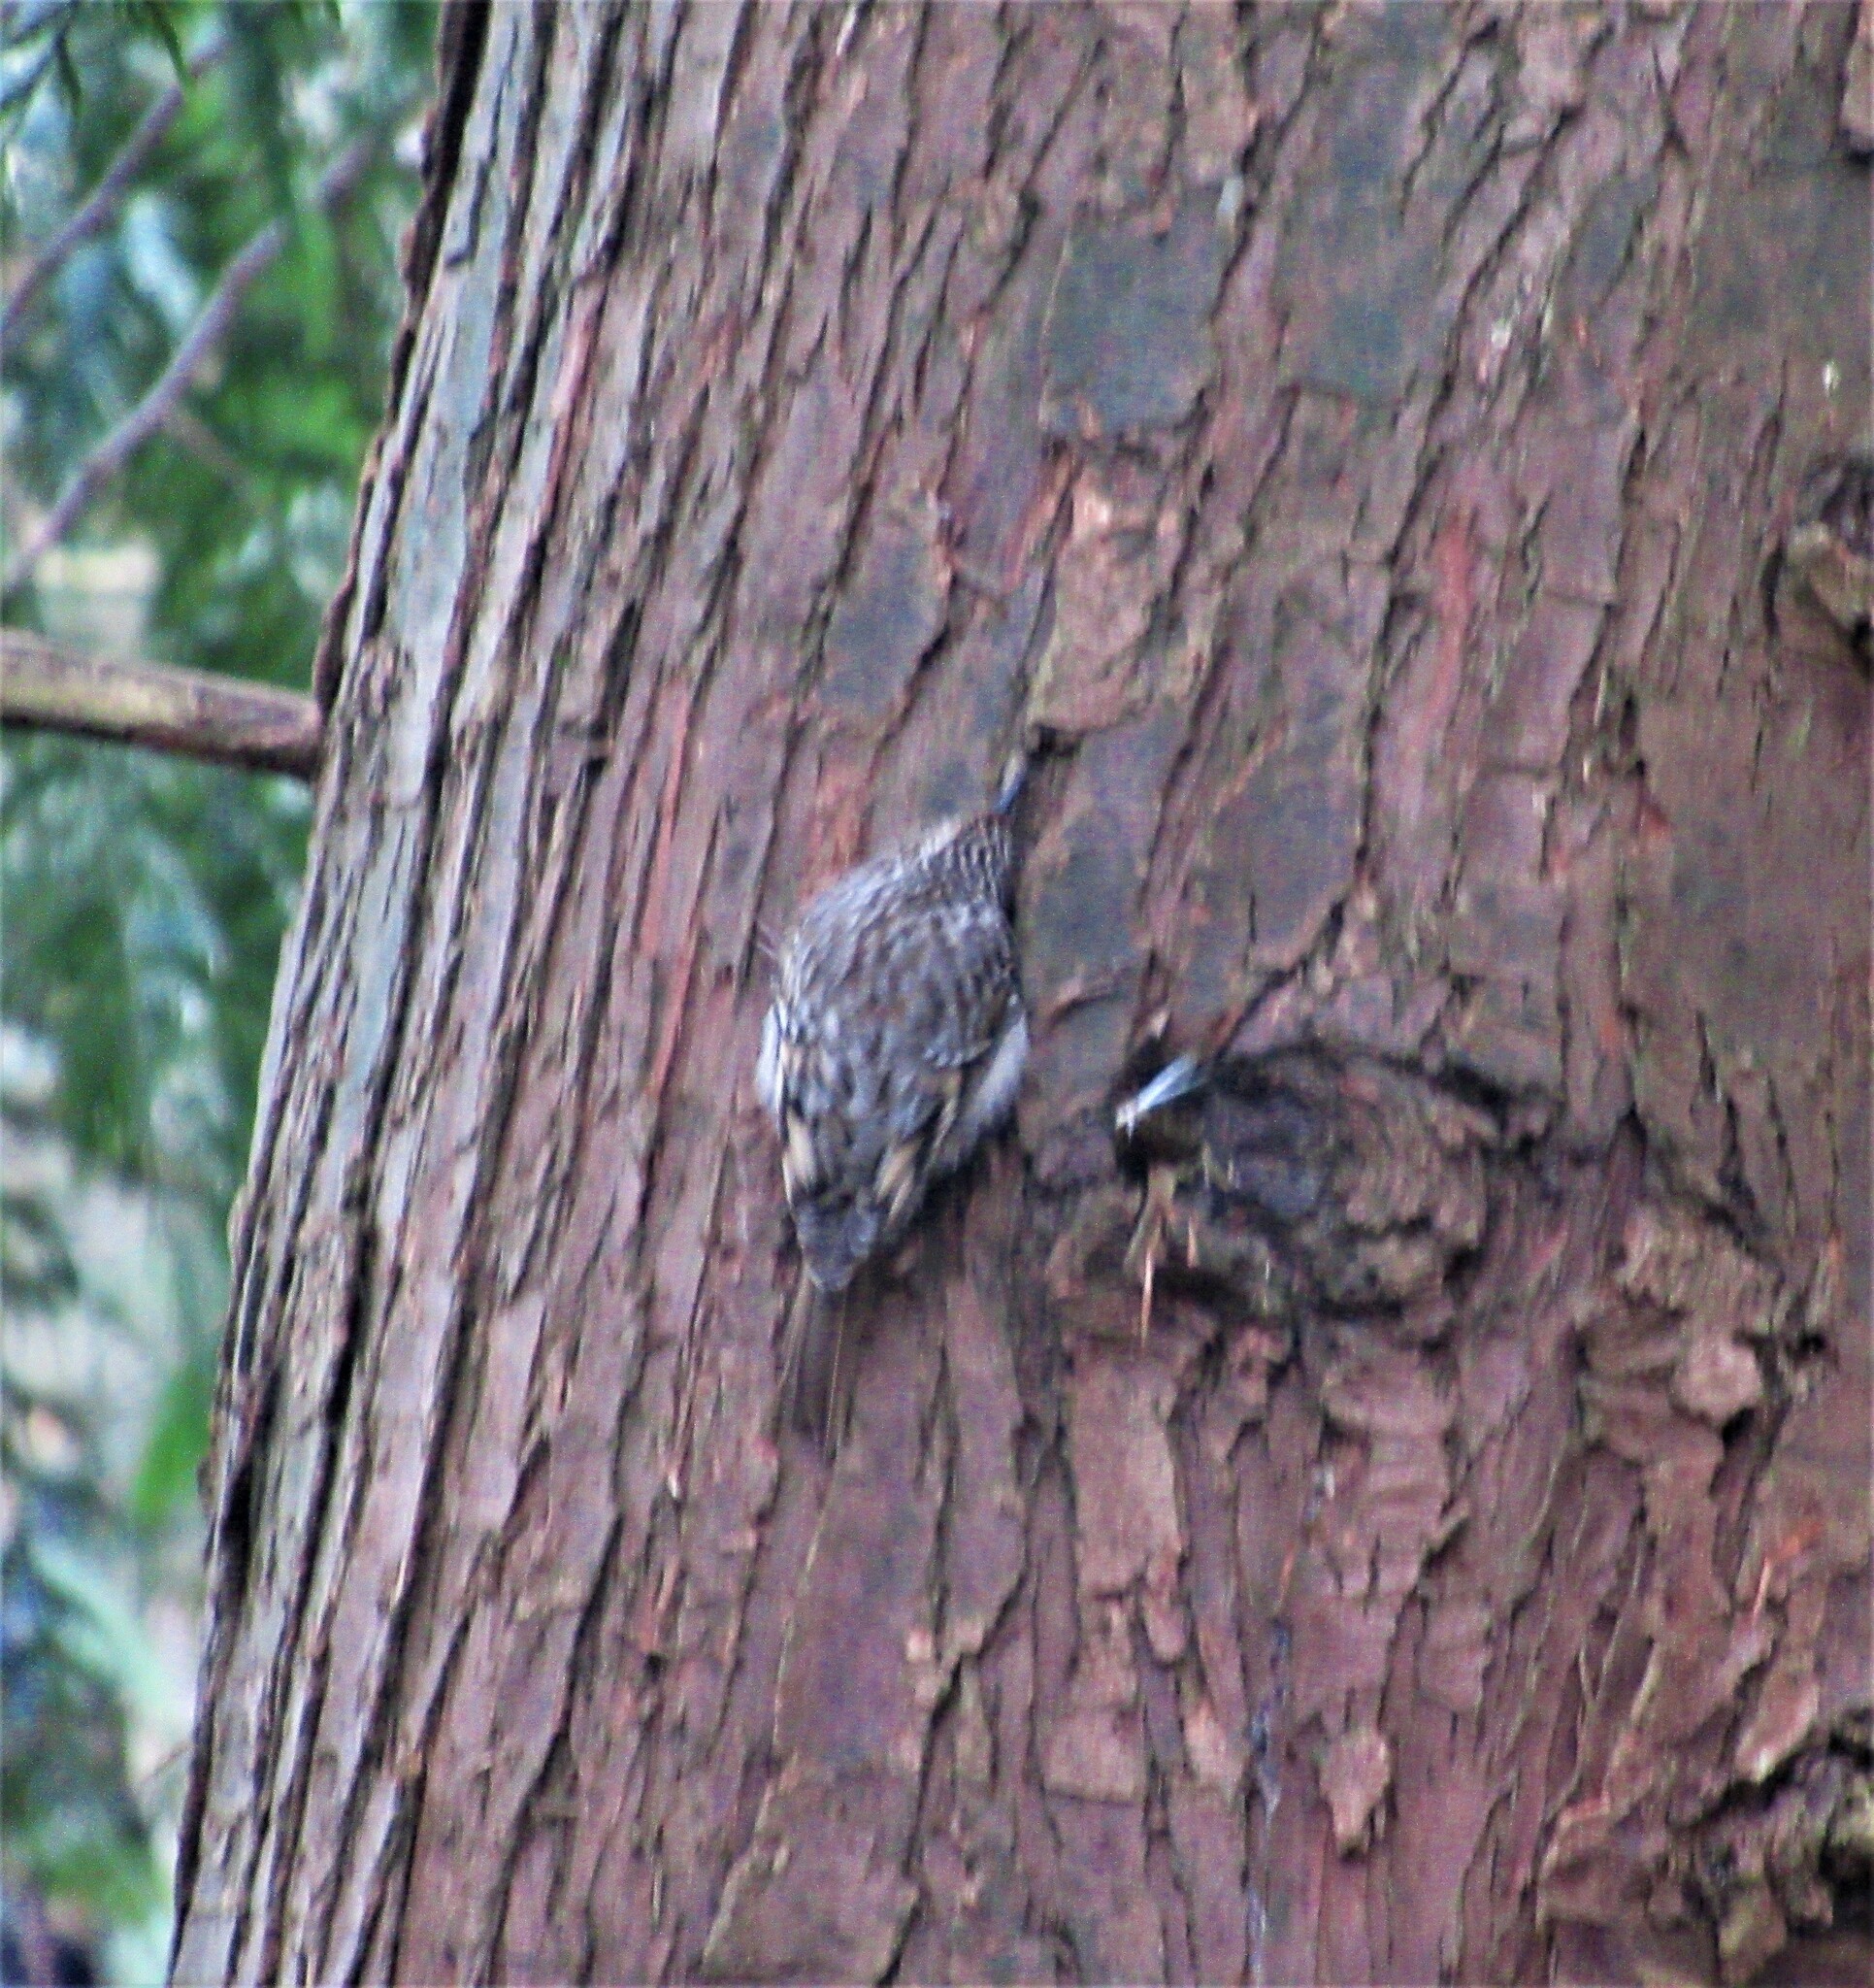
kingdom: Animalia
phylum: Chordata
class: Aves
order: Passeriformes
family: Certhiidae
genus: Certhia
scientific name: Certhia americana
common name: Brown creeper
